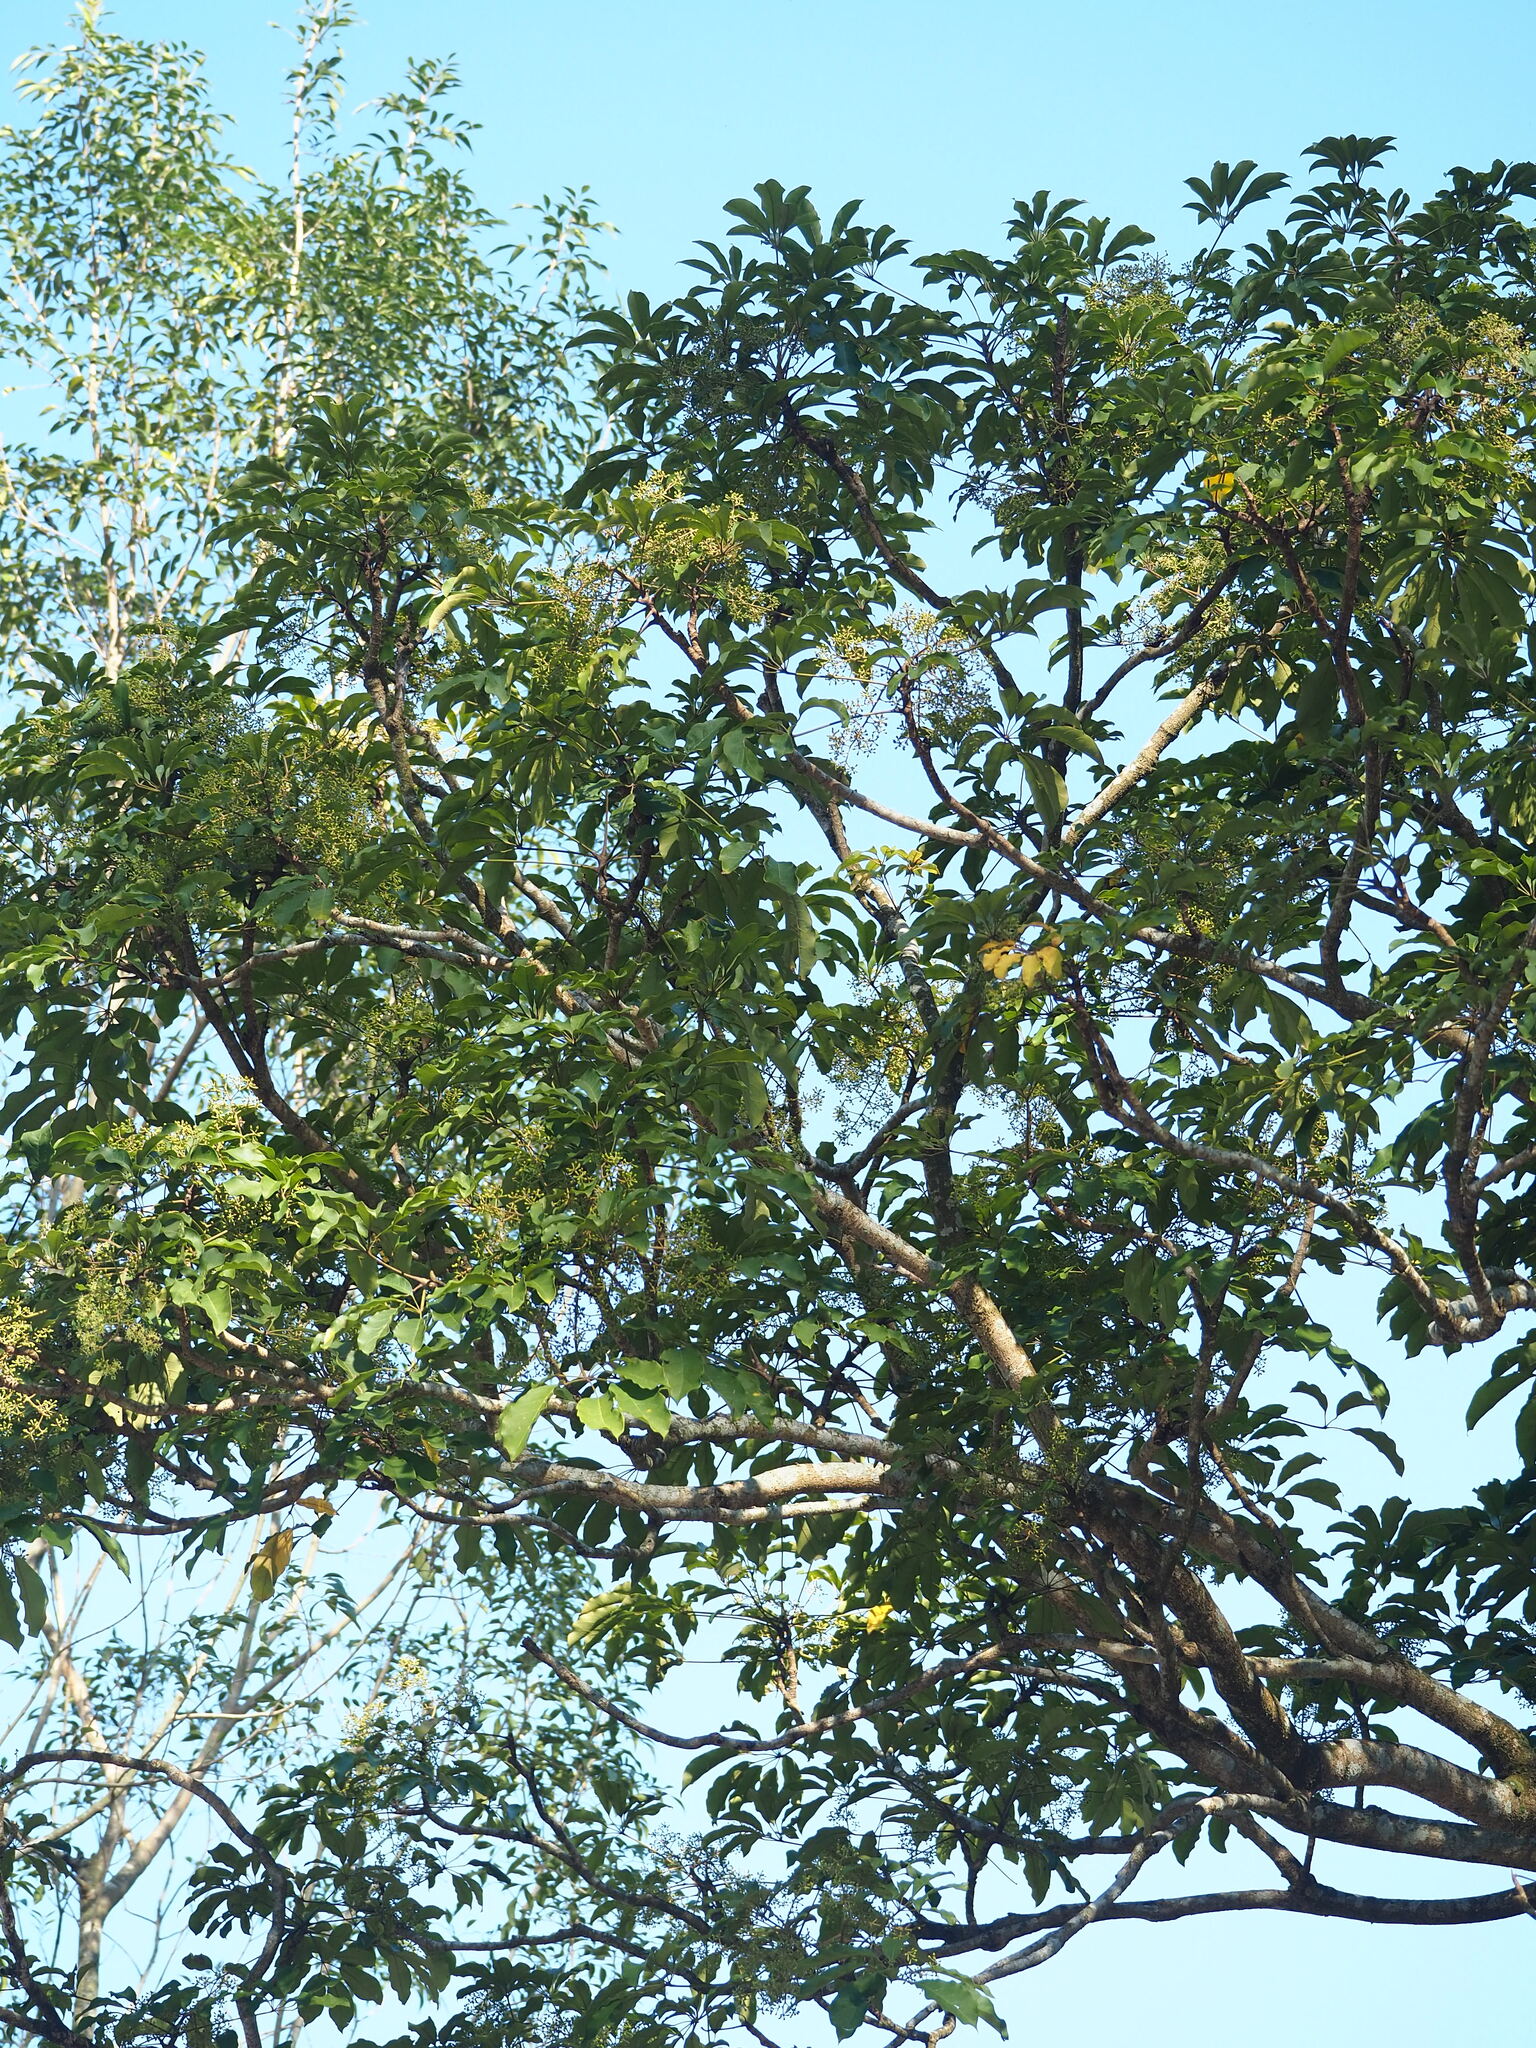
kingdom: Plantae
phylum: Tracheophyta
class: Magnoliopsida
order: Apiales
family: Araliaceae
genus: Heptapleurum
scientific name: Heptapleurum heptaphyllum
